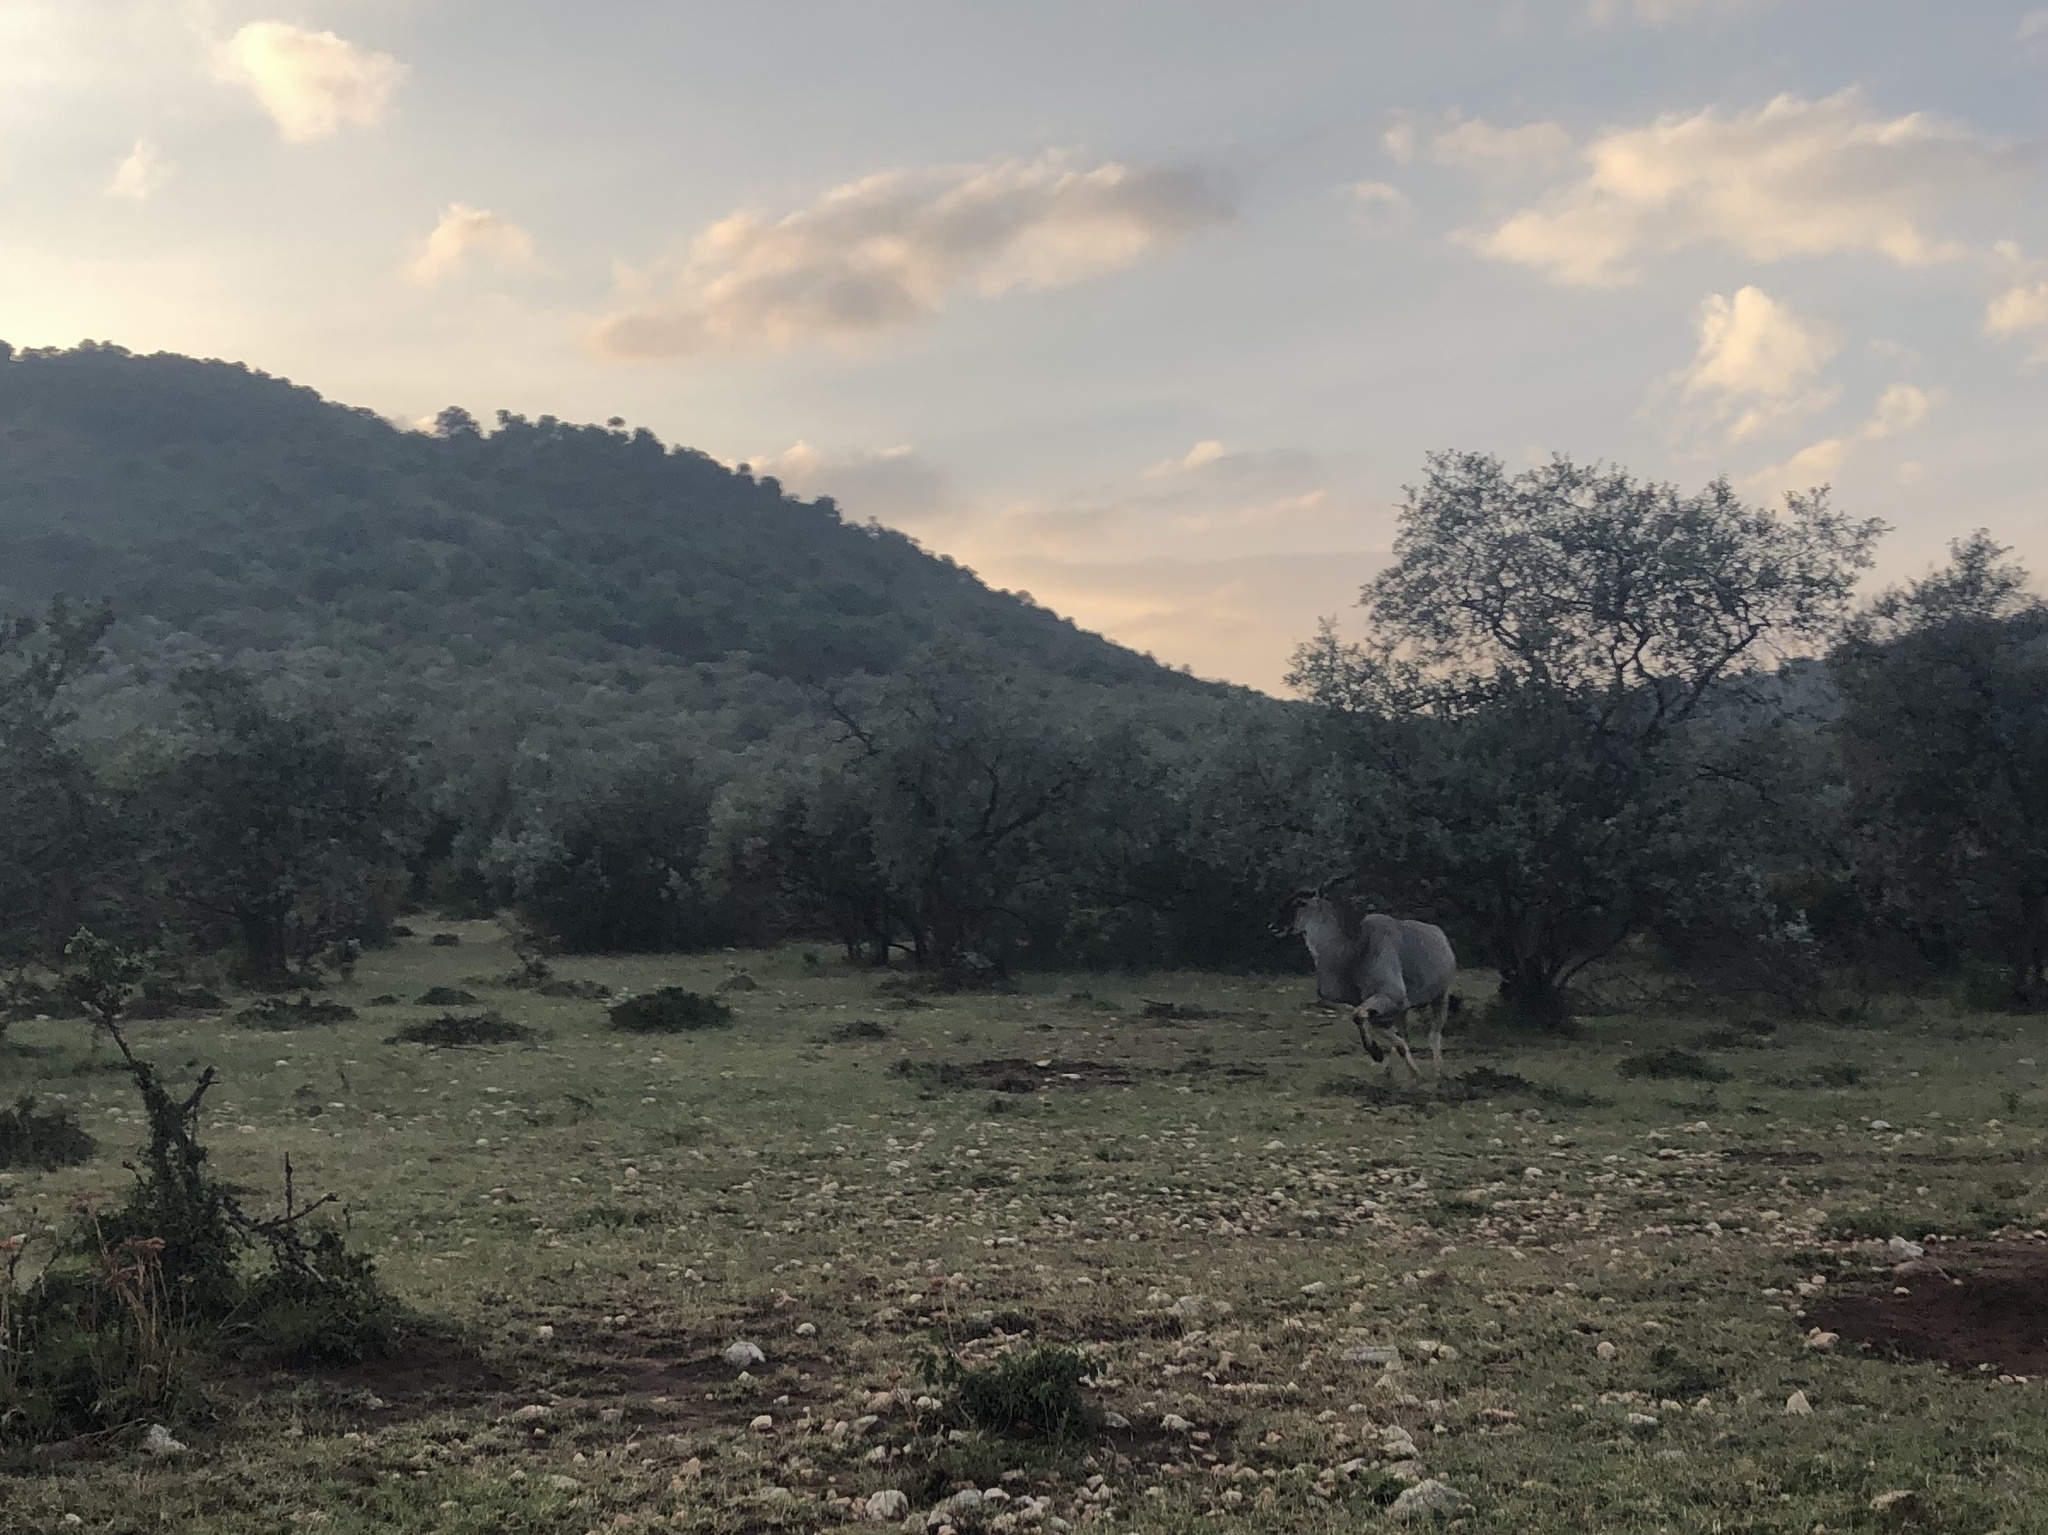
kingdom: Animalia
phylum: Chordata
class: Mammalia
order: Artiodactyla
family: Bovidae
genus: Taurotragus
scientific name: Taurotragus oryx
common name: Common eland
